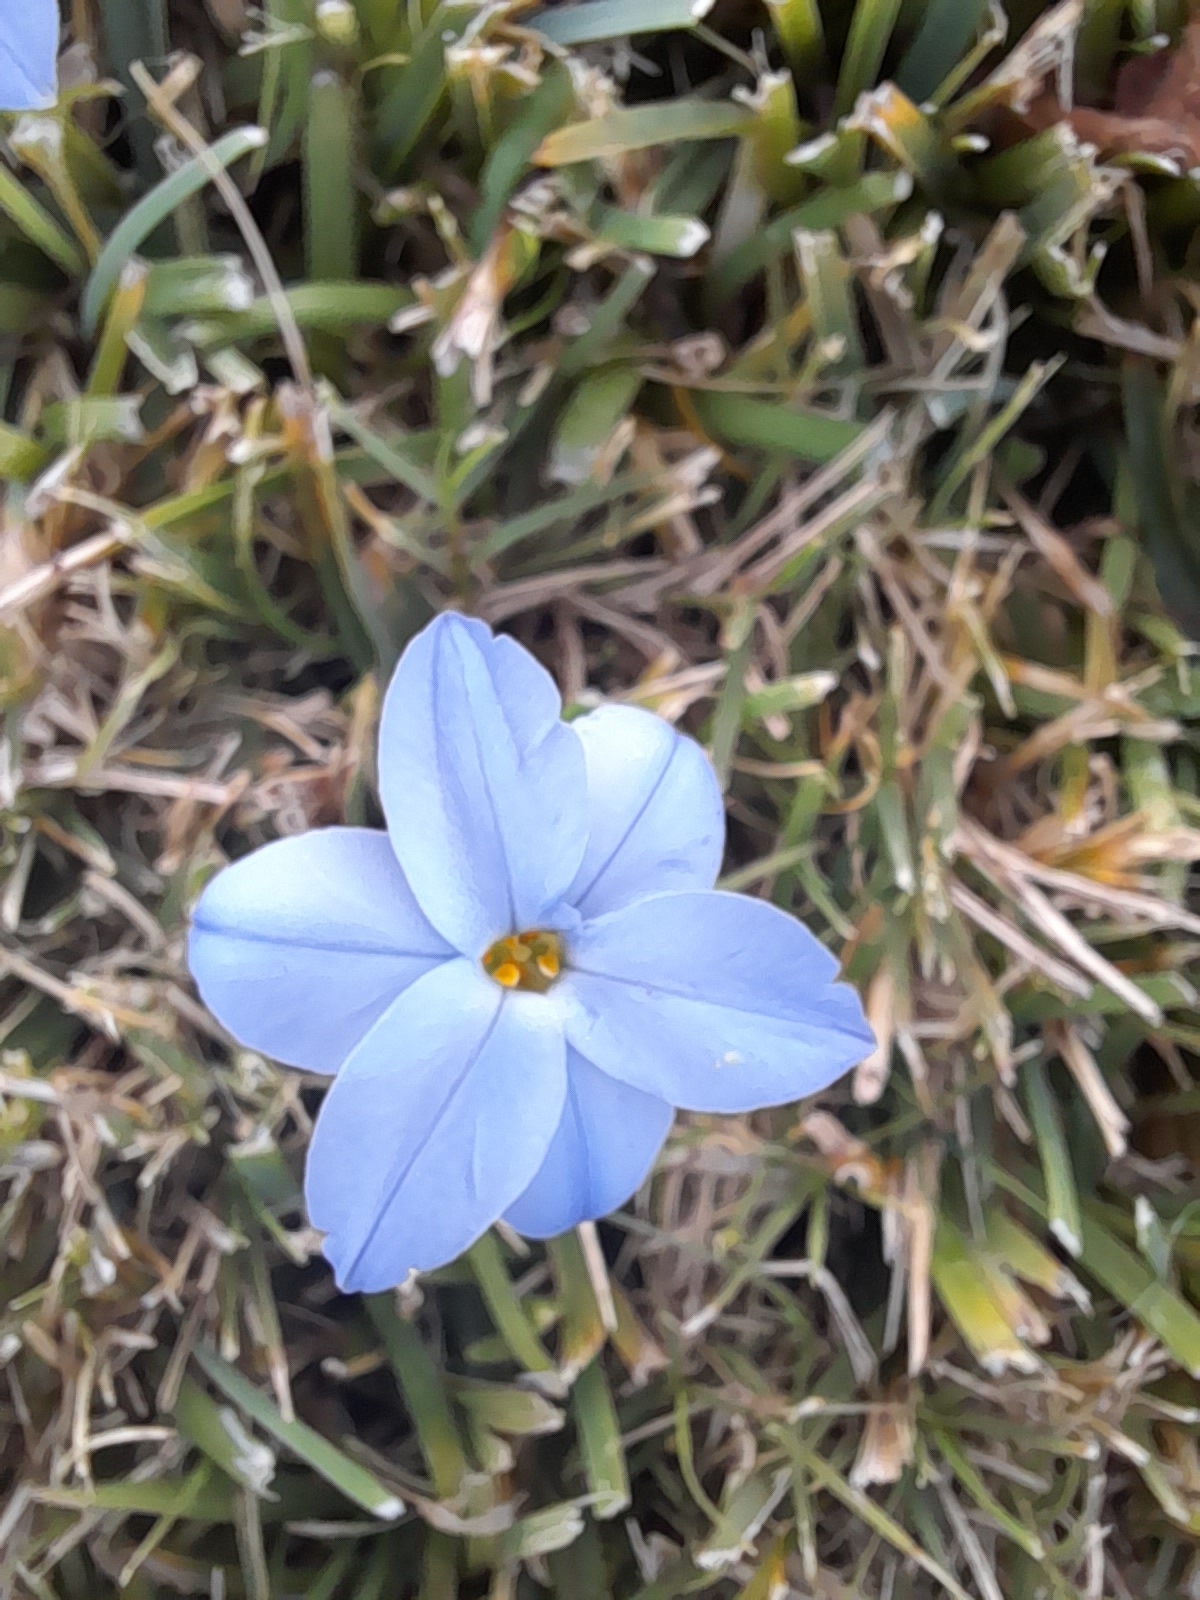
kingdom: Plantae
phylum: Tracheophyta
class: Liliopsida
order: Asparagales
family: Amaryllidaceae
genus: Ipheion
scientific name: Ipheion uniflorum
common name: Spring starflower
